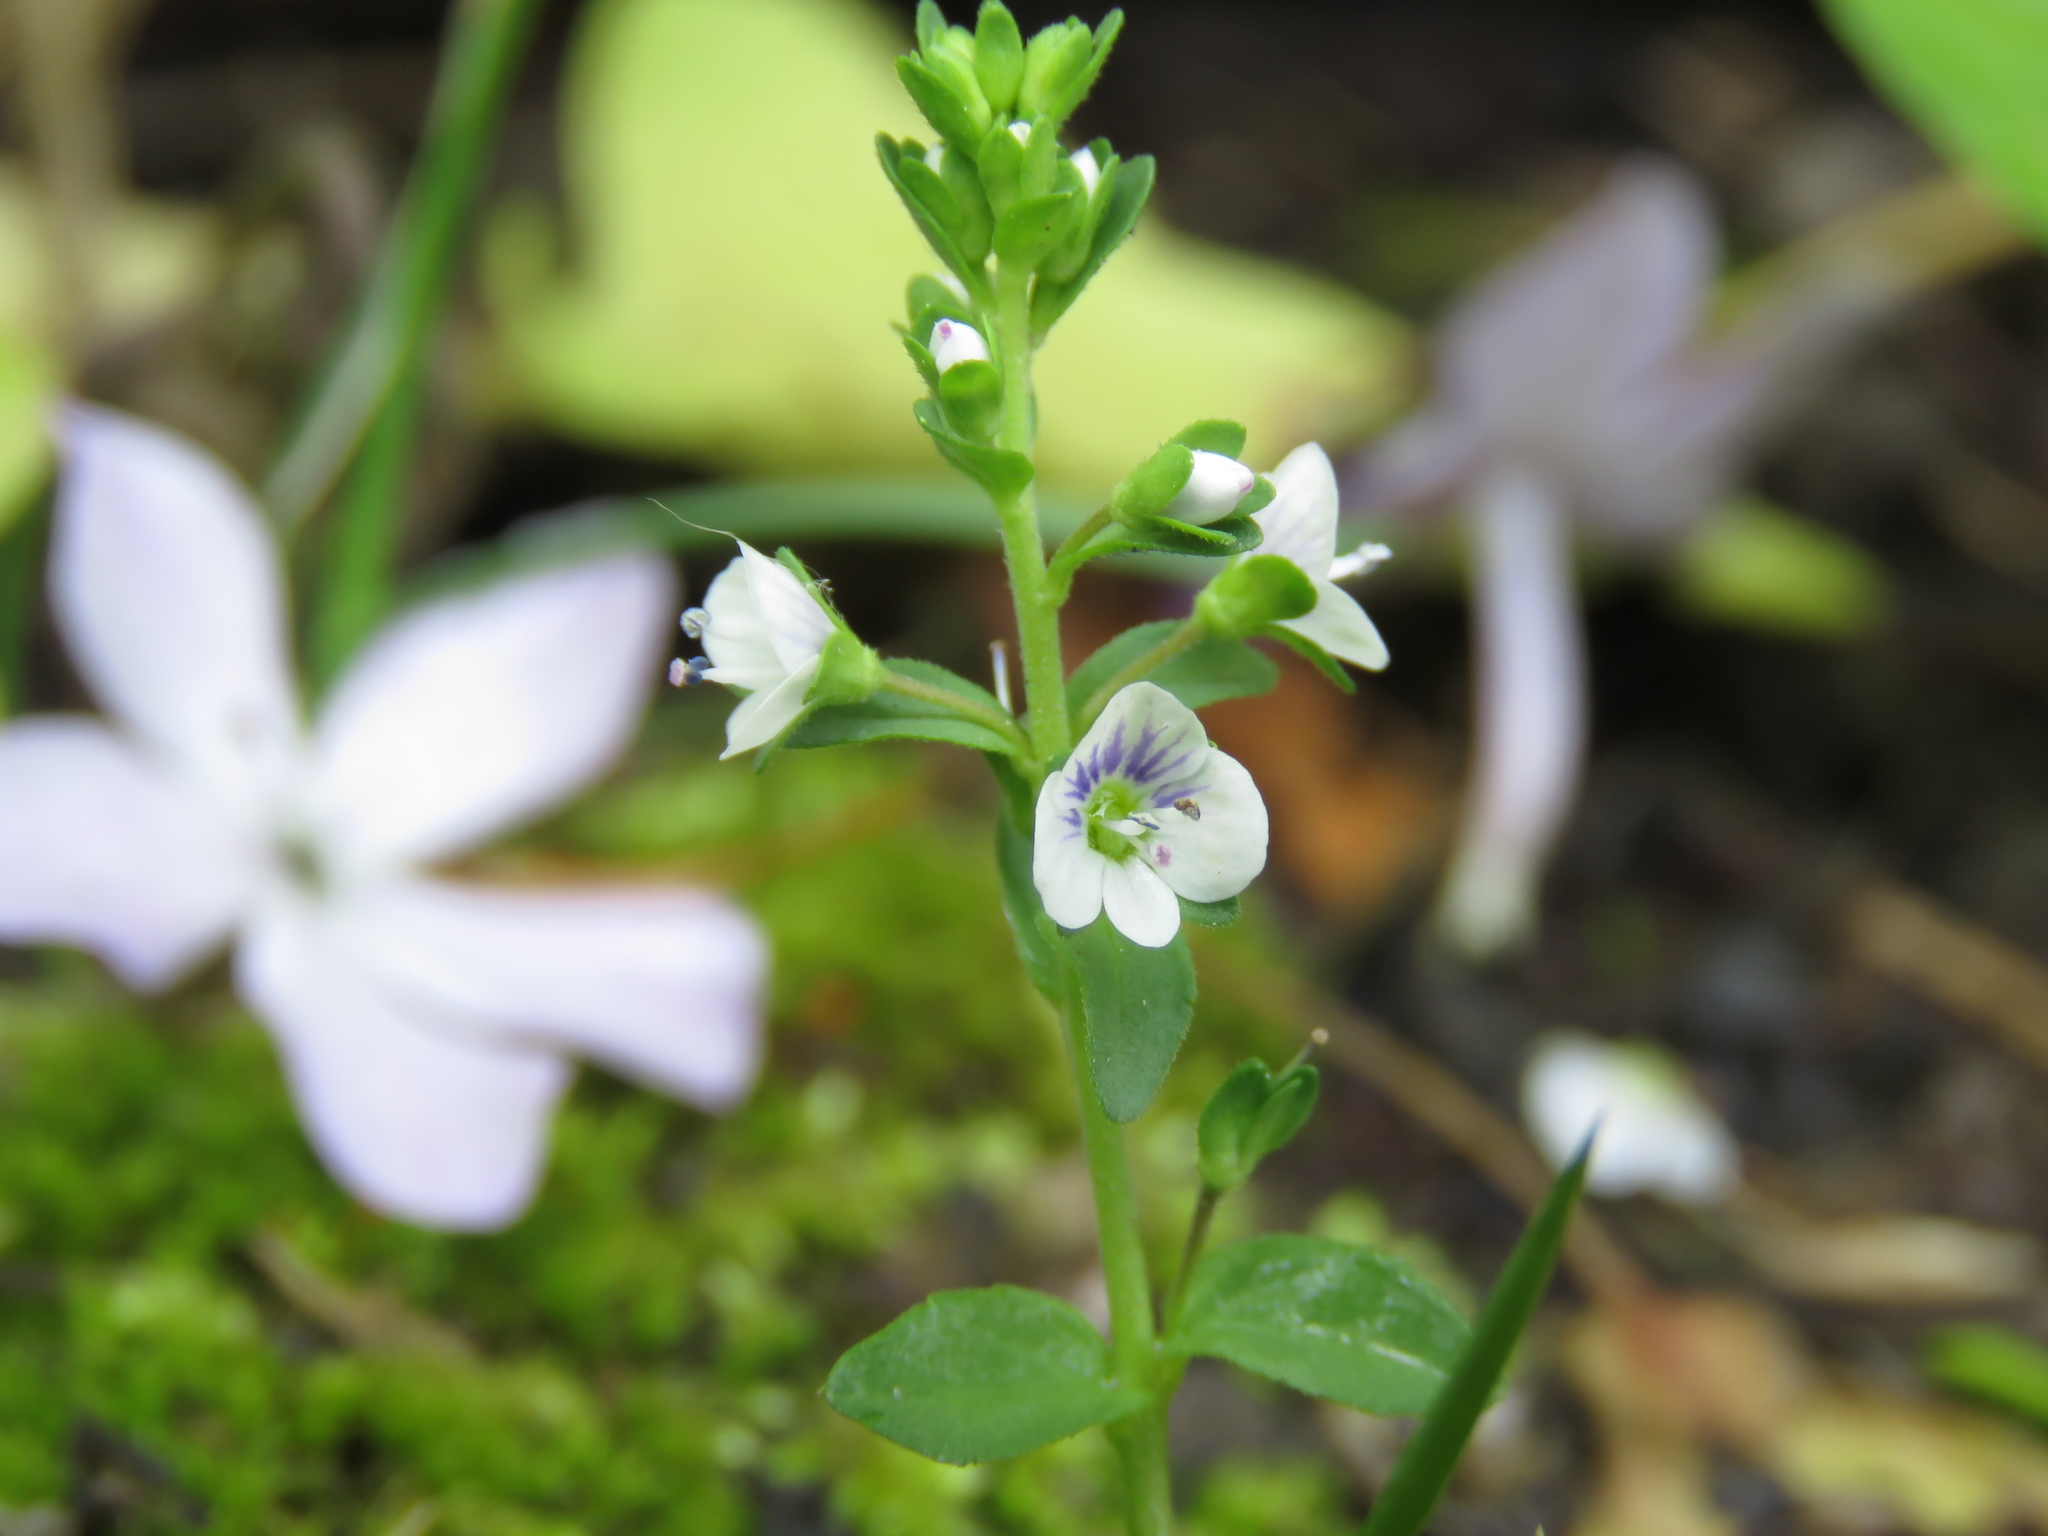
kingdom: Plantae
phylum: Tracheophyta
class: Magnoliopsida
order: Lamiales
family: Plantaginaceae
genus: Veronica
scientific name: Veronica serpyllifolia
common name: Thyme-leaved speedwell
